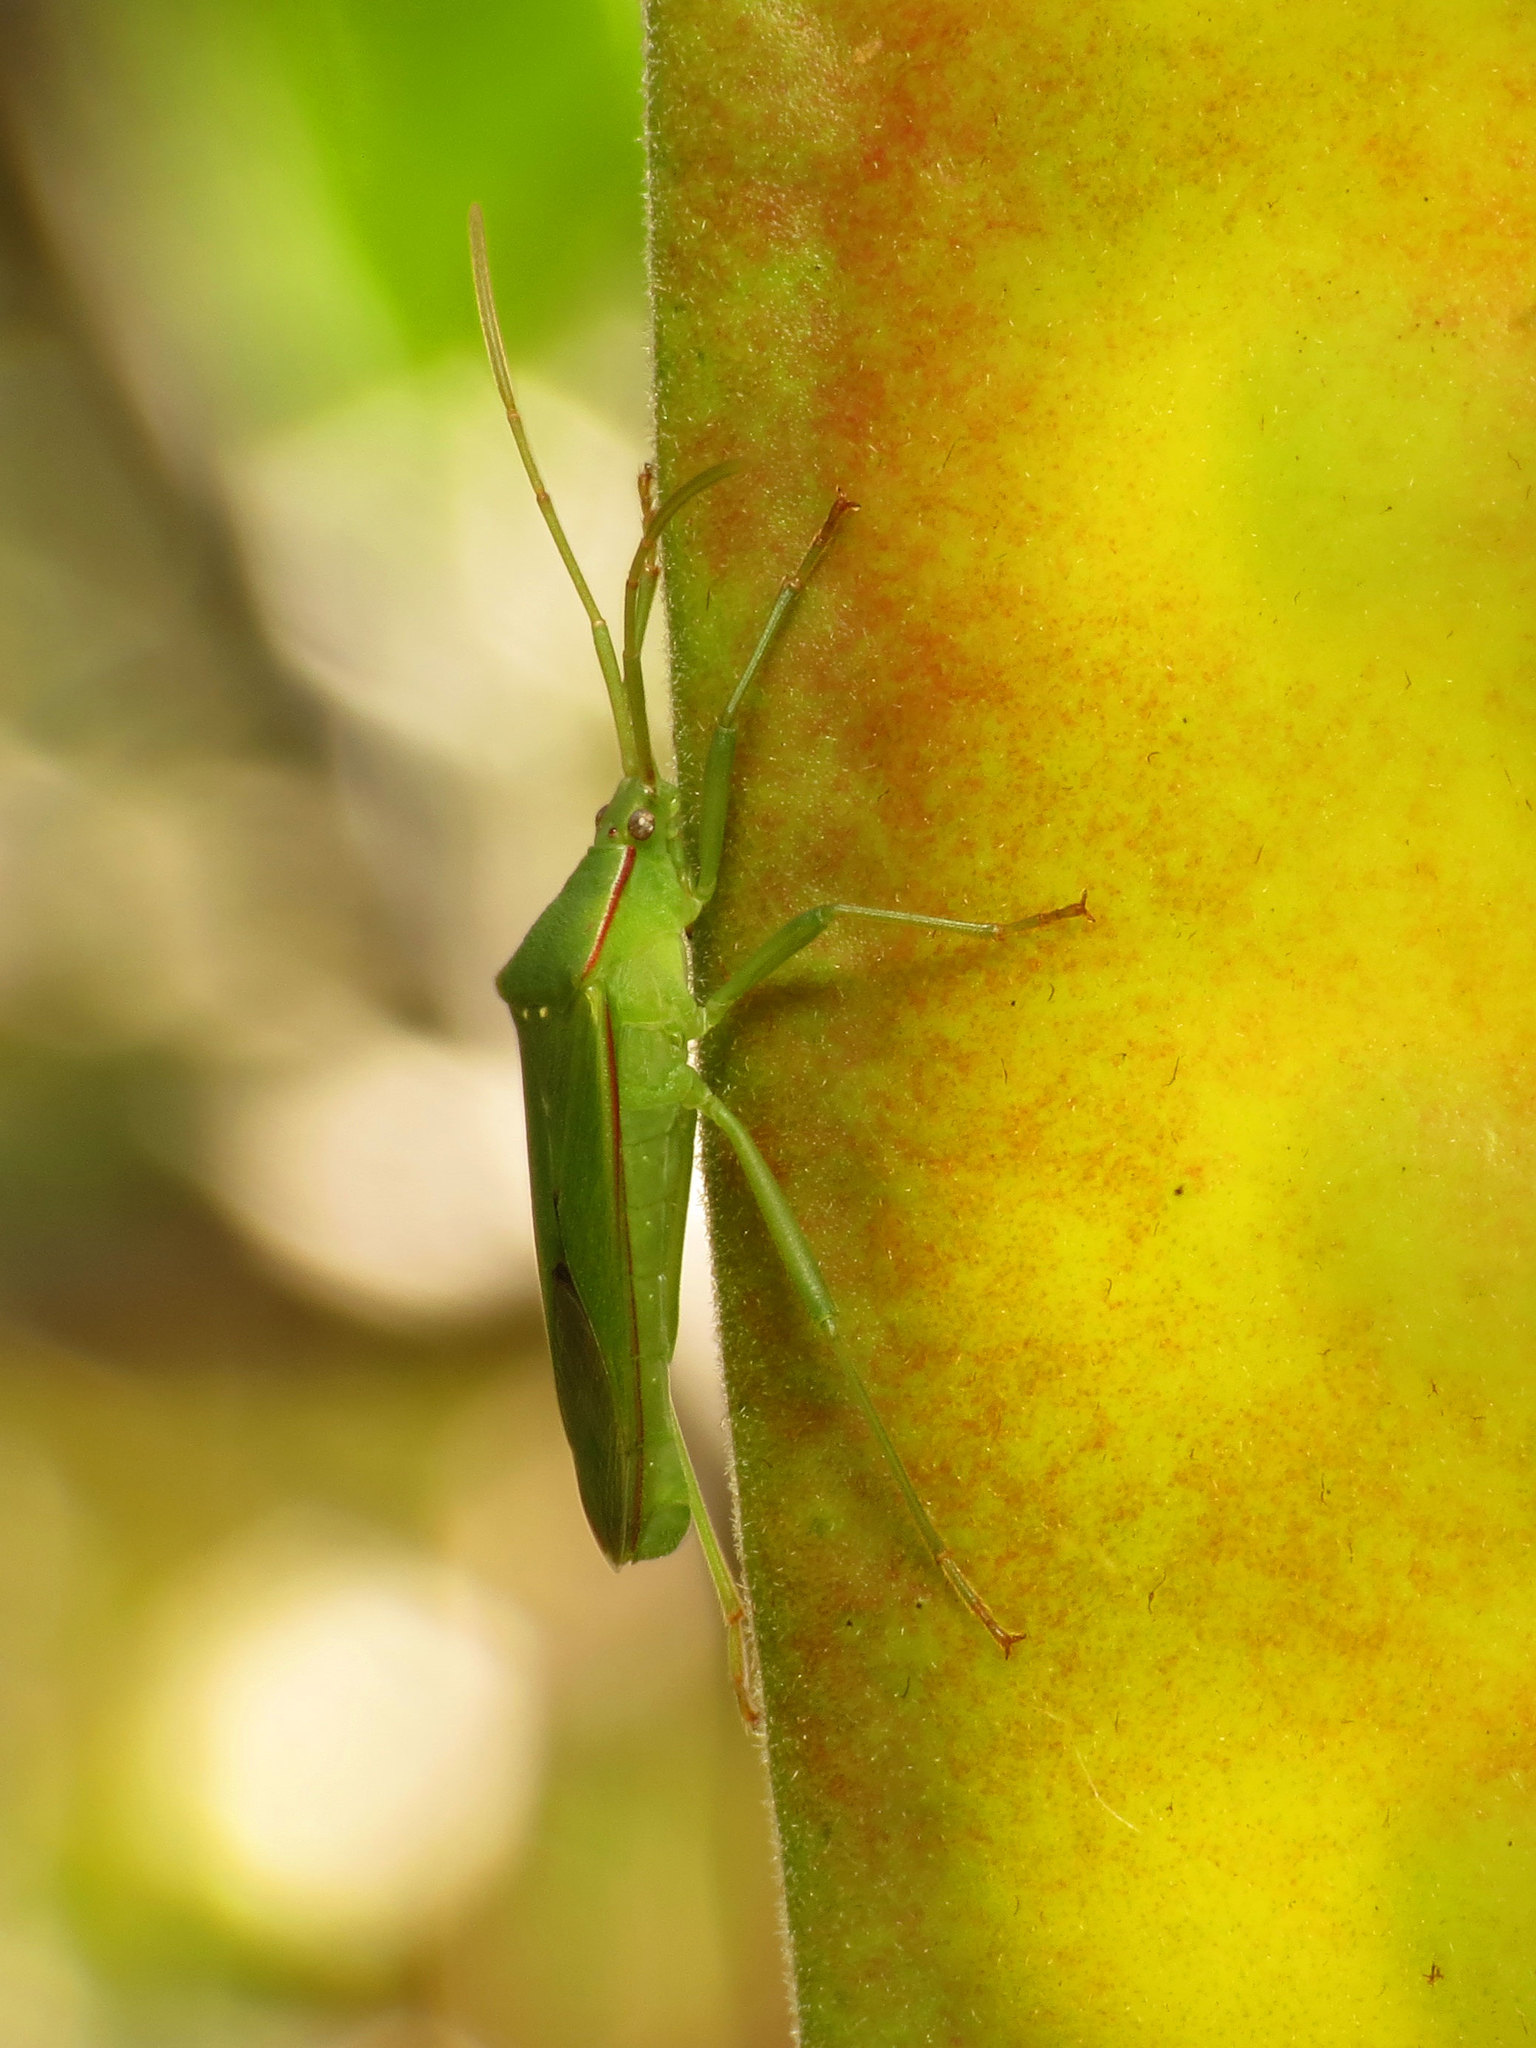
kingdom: Animalia
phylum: Arthropoda
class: Insecta
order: Hemiptera
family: Coreidae
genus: Savius
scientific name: Savius rufomarginatus
